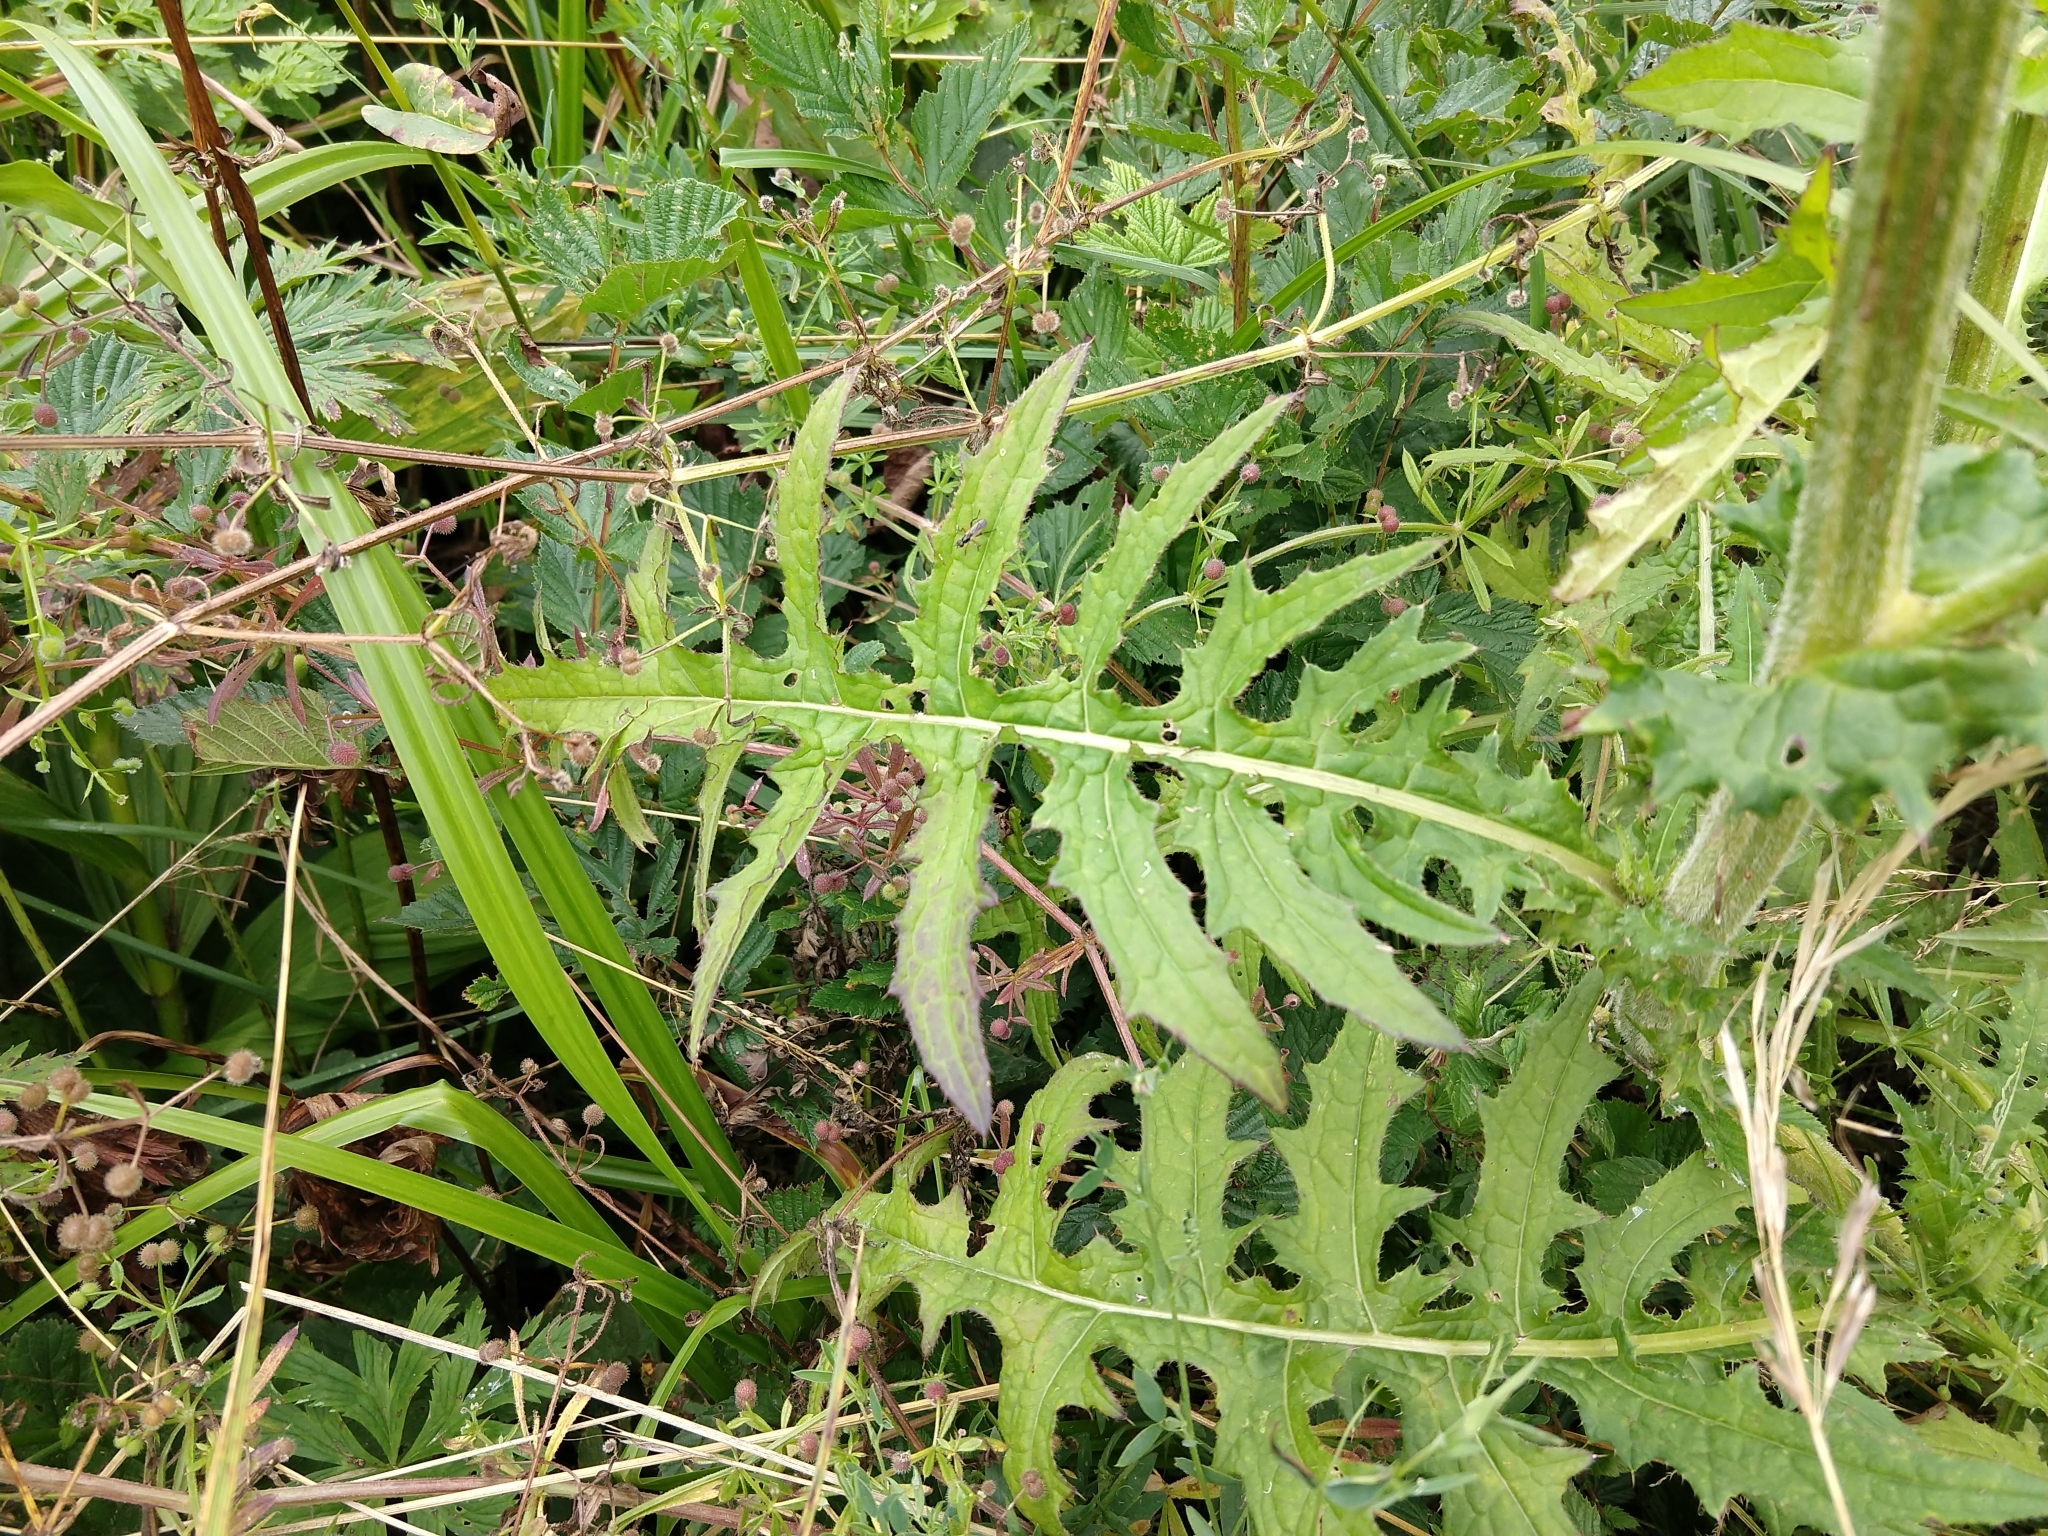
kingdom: Plantae
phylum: Tracheophyta
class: Magnoliopsida
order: Asterales
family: Asteraceae
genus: Cirsium
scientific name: Cirsium hybridum
